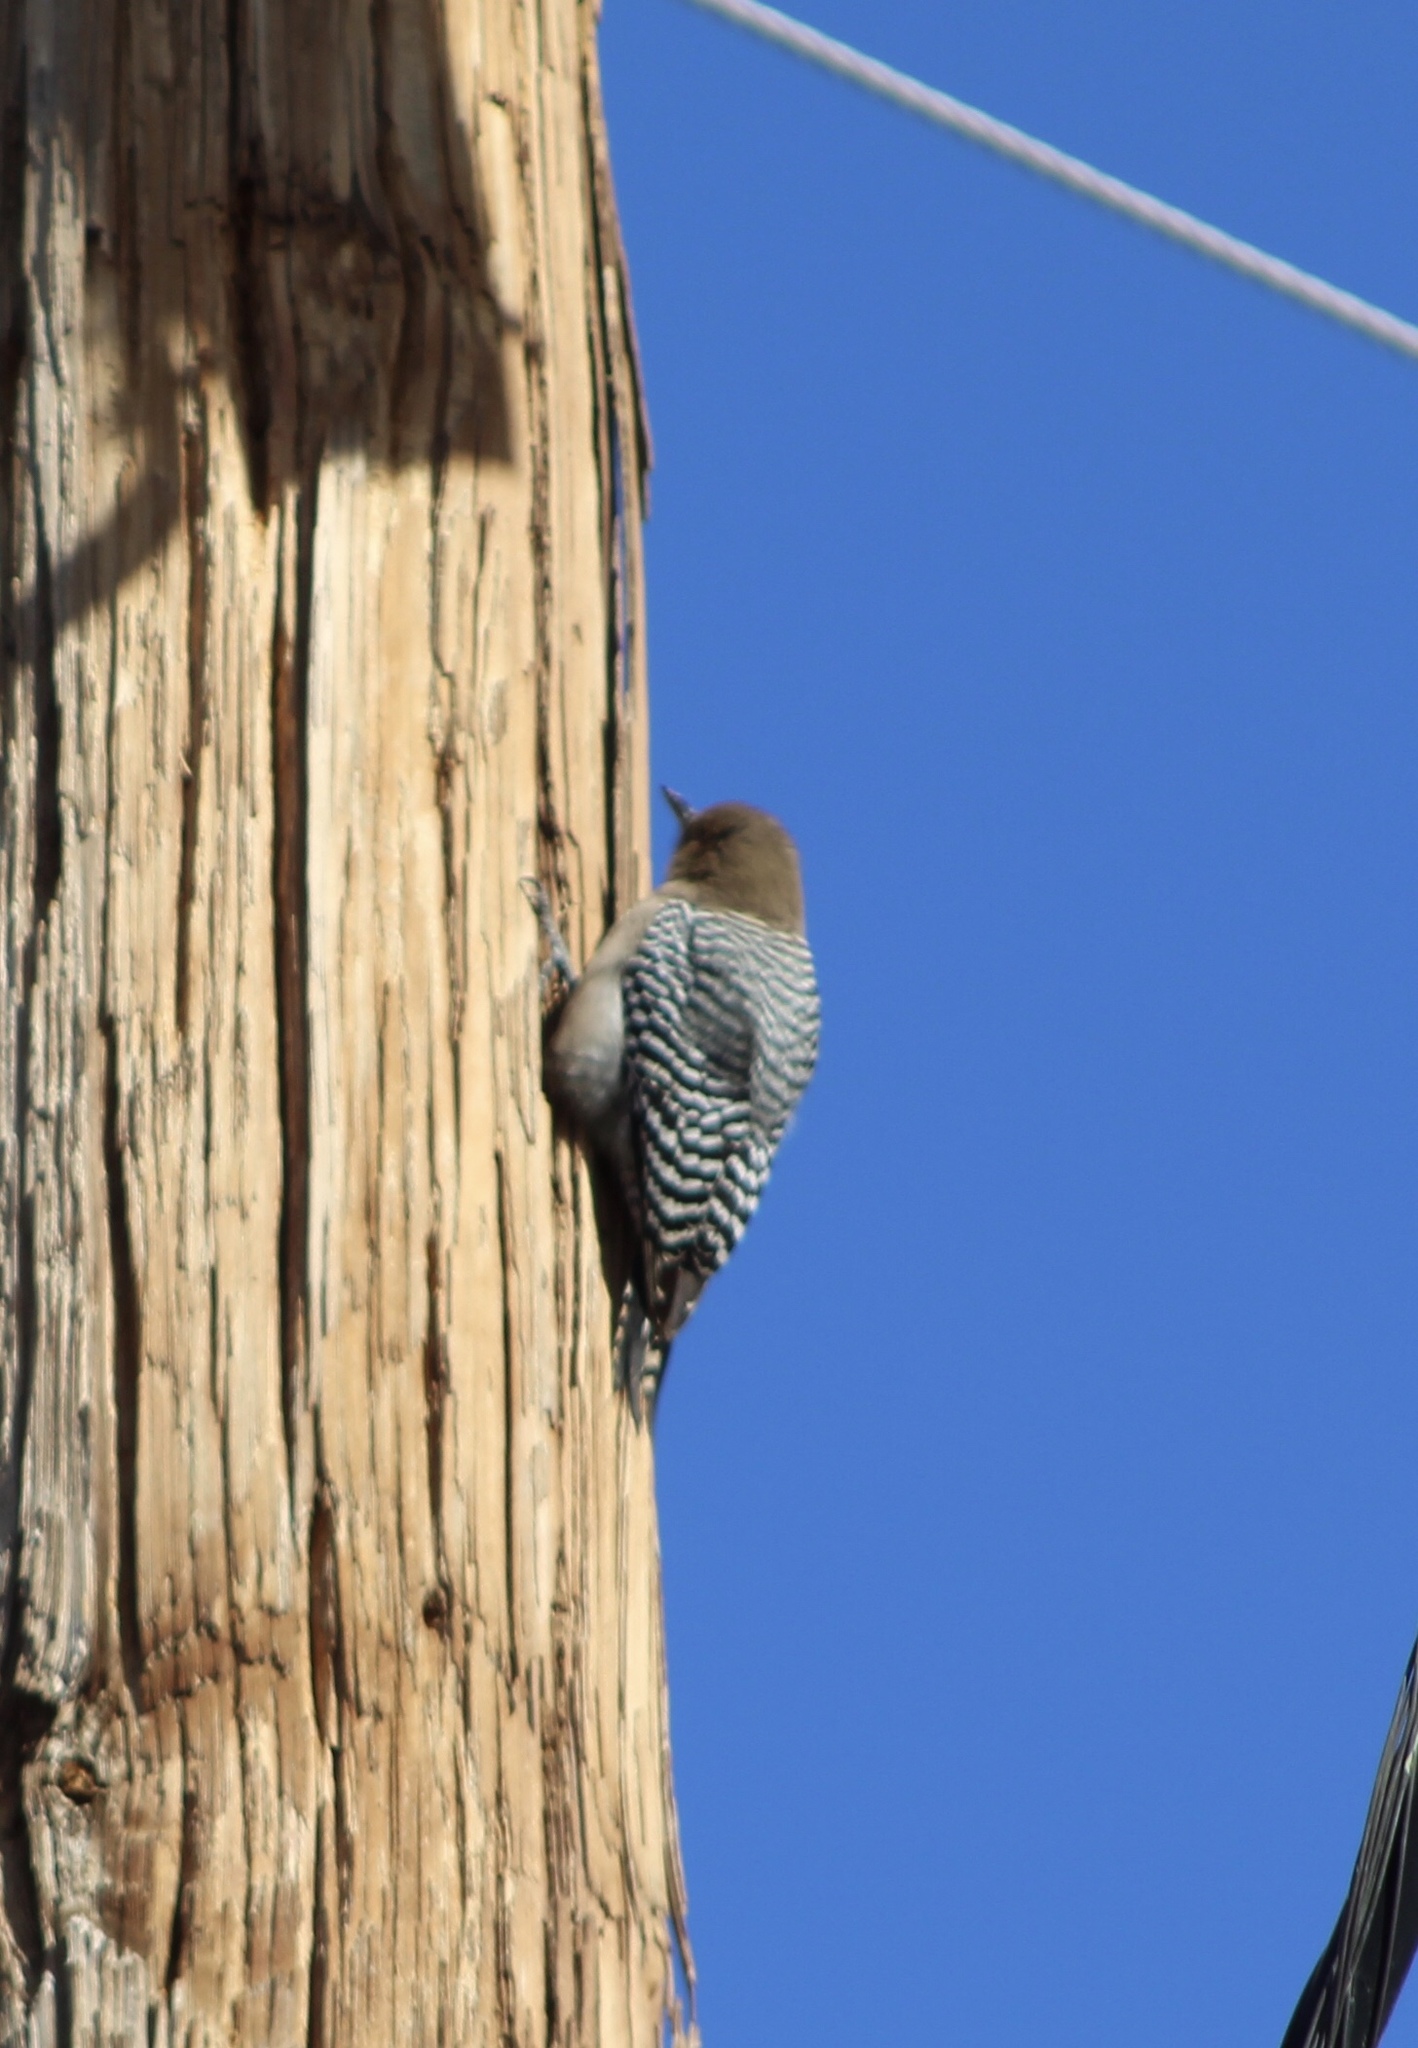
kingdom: Animalia
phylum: Chordata
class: Aves
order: Piciformes
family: Picidae
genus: Melanerpes
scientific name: Melanerpes uropygialis
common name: Gila woodpecker
